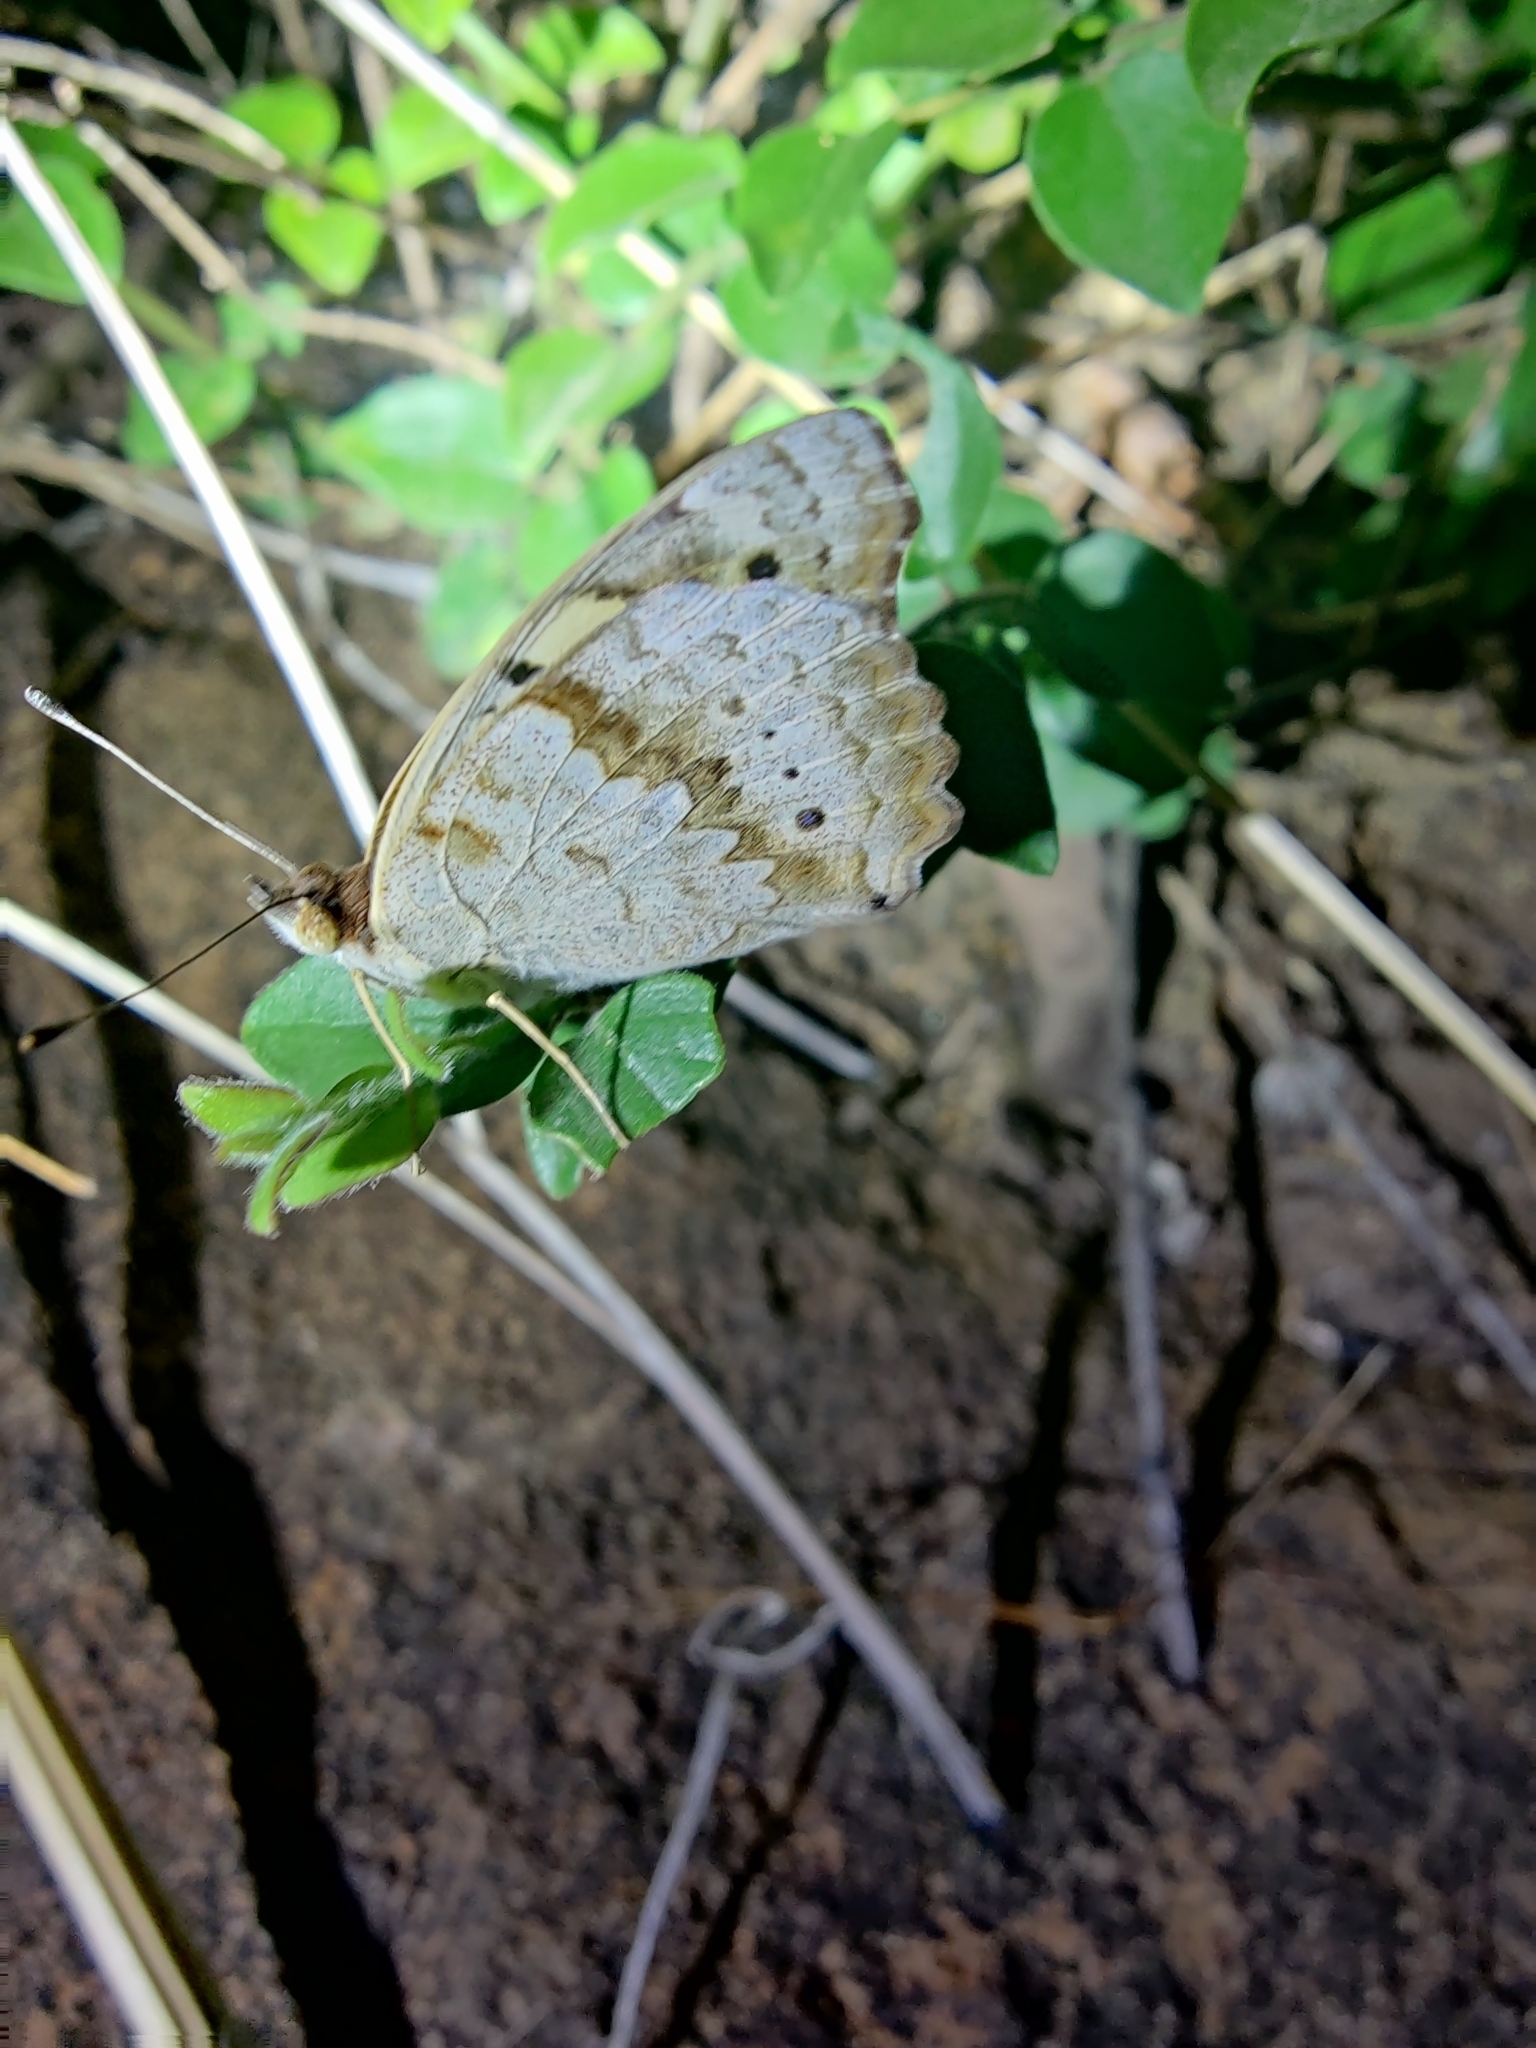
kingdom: Animalia
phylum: Arthropoda
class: Insecta
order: Lepidoptera
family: Nymphalidae
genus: Junonia
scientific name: Junonia hierta
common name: Yellow pansy
